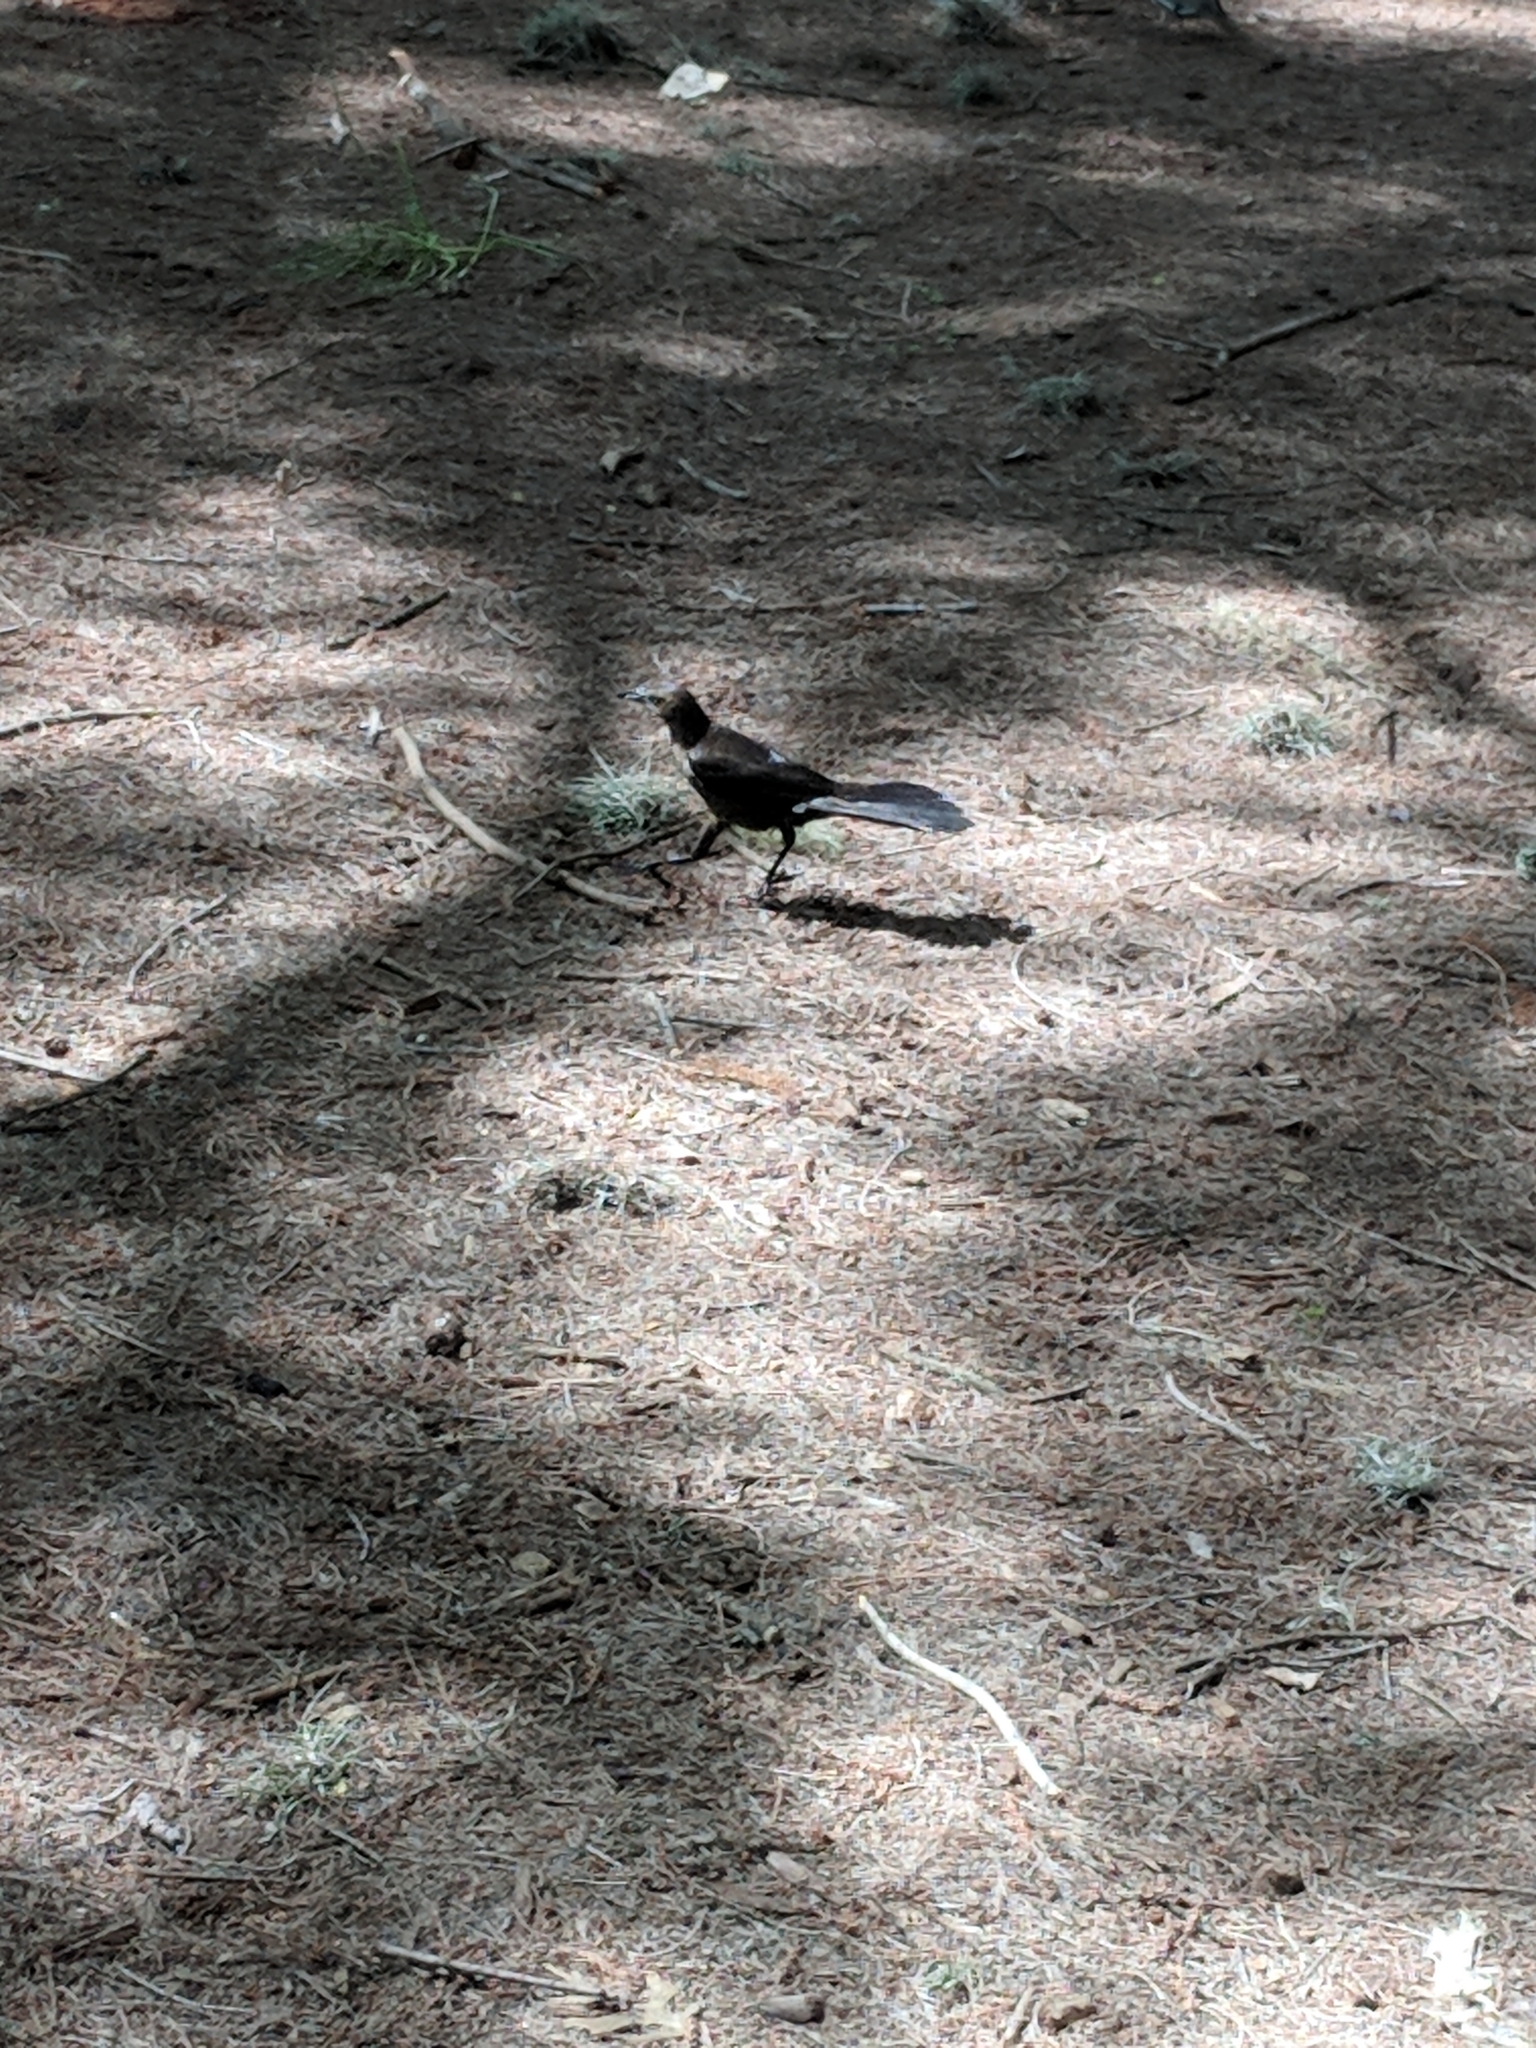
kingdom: Animalia
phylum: Chordata
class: Aves
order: Passeriformes
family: Icteridae
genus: Quiscalus
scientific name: Quiscalus mexicanus
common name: Great-tailed grackle
